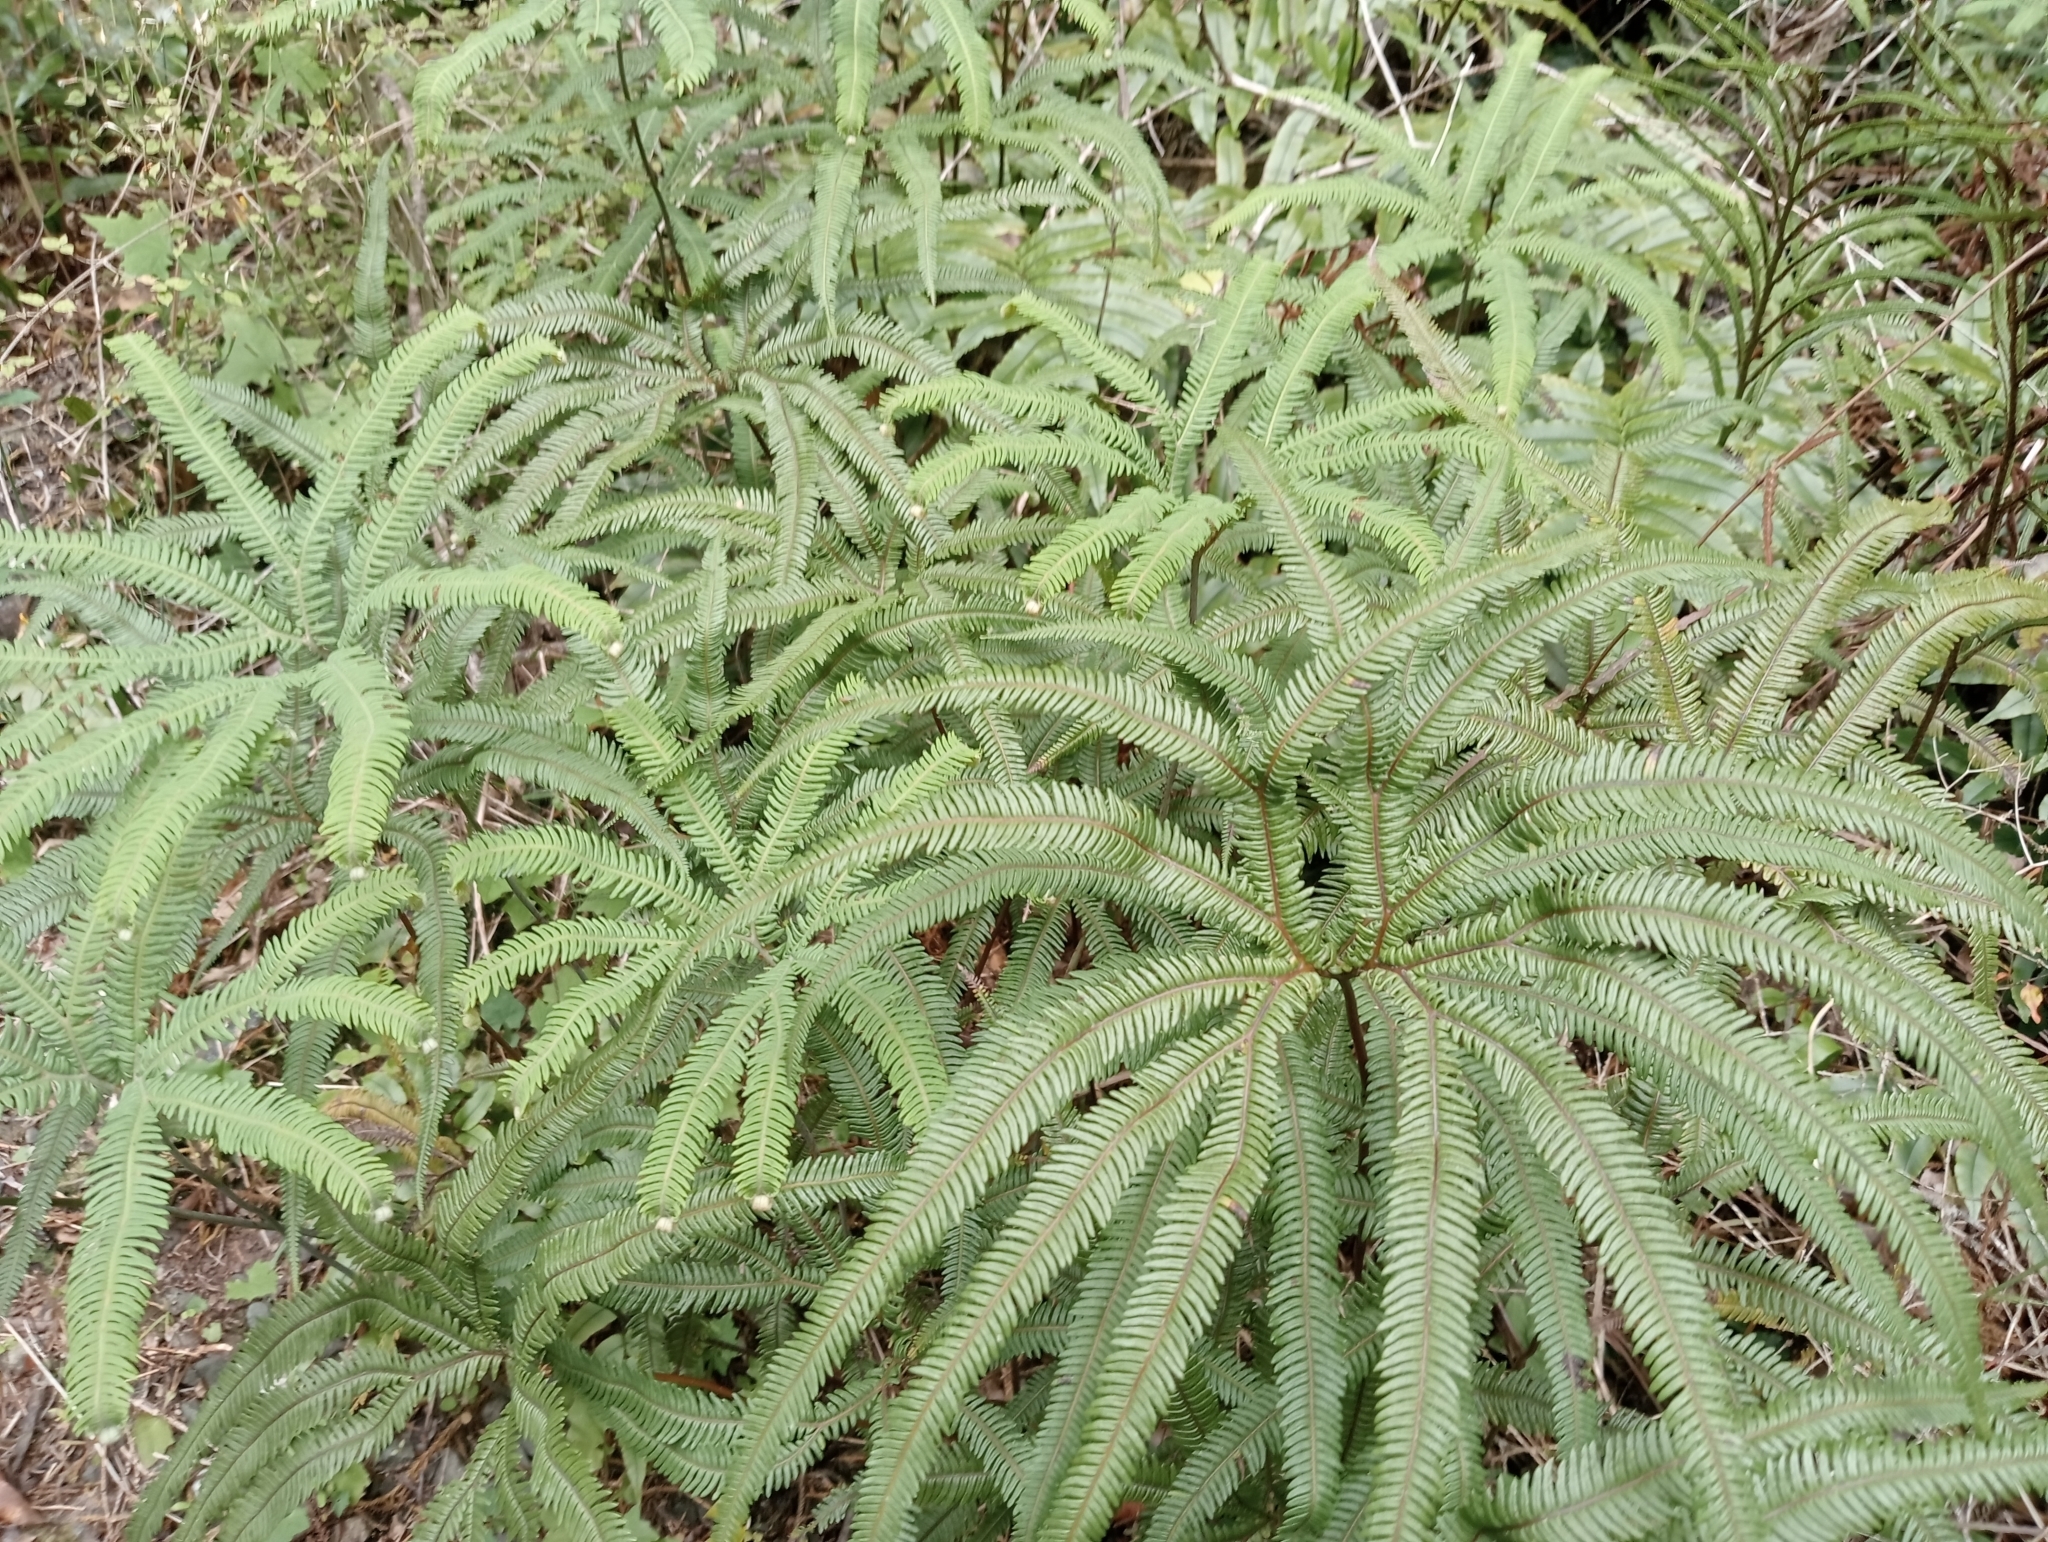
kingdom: Plantae
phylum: Tracheophyta
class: Polypodiopsida
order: Gleicheniales
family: Gleicheniaceae
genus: Sticherus
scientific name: Sticherus cunninghamii
